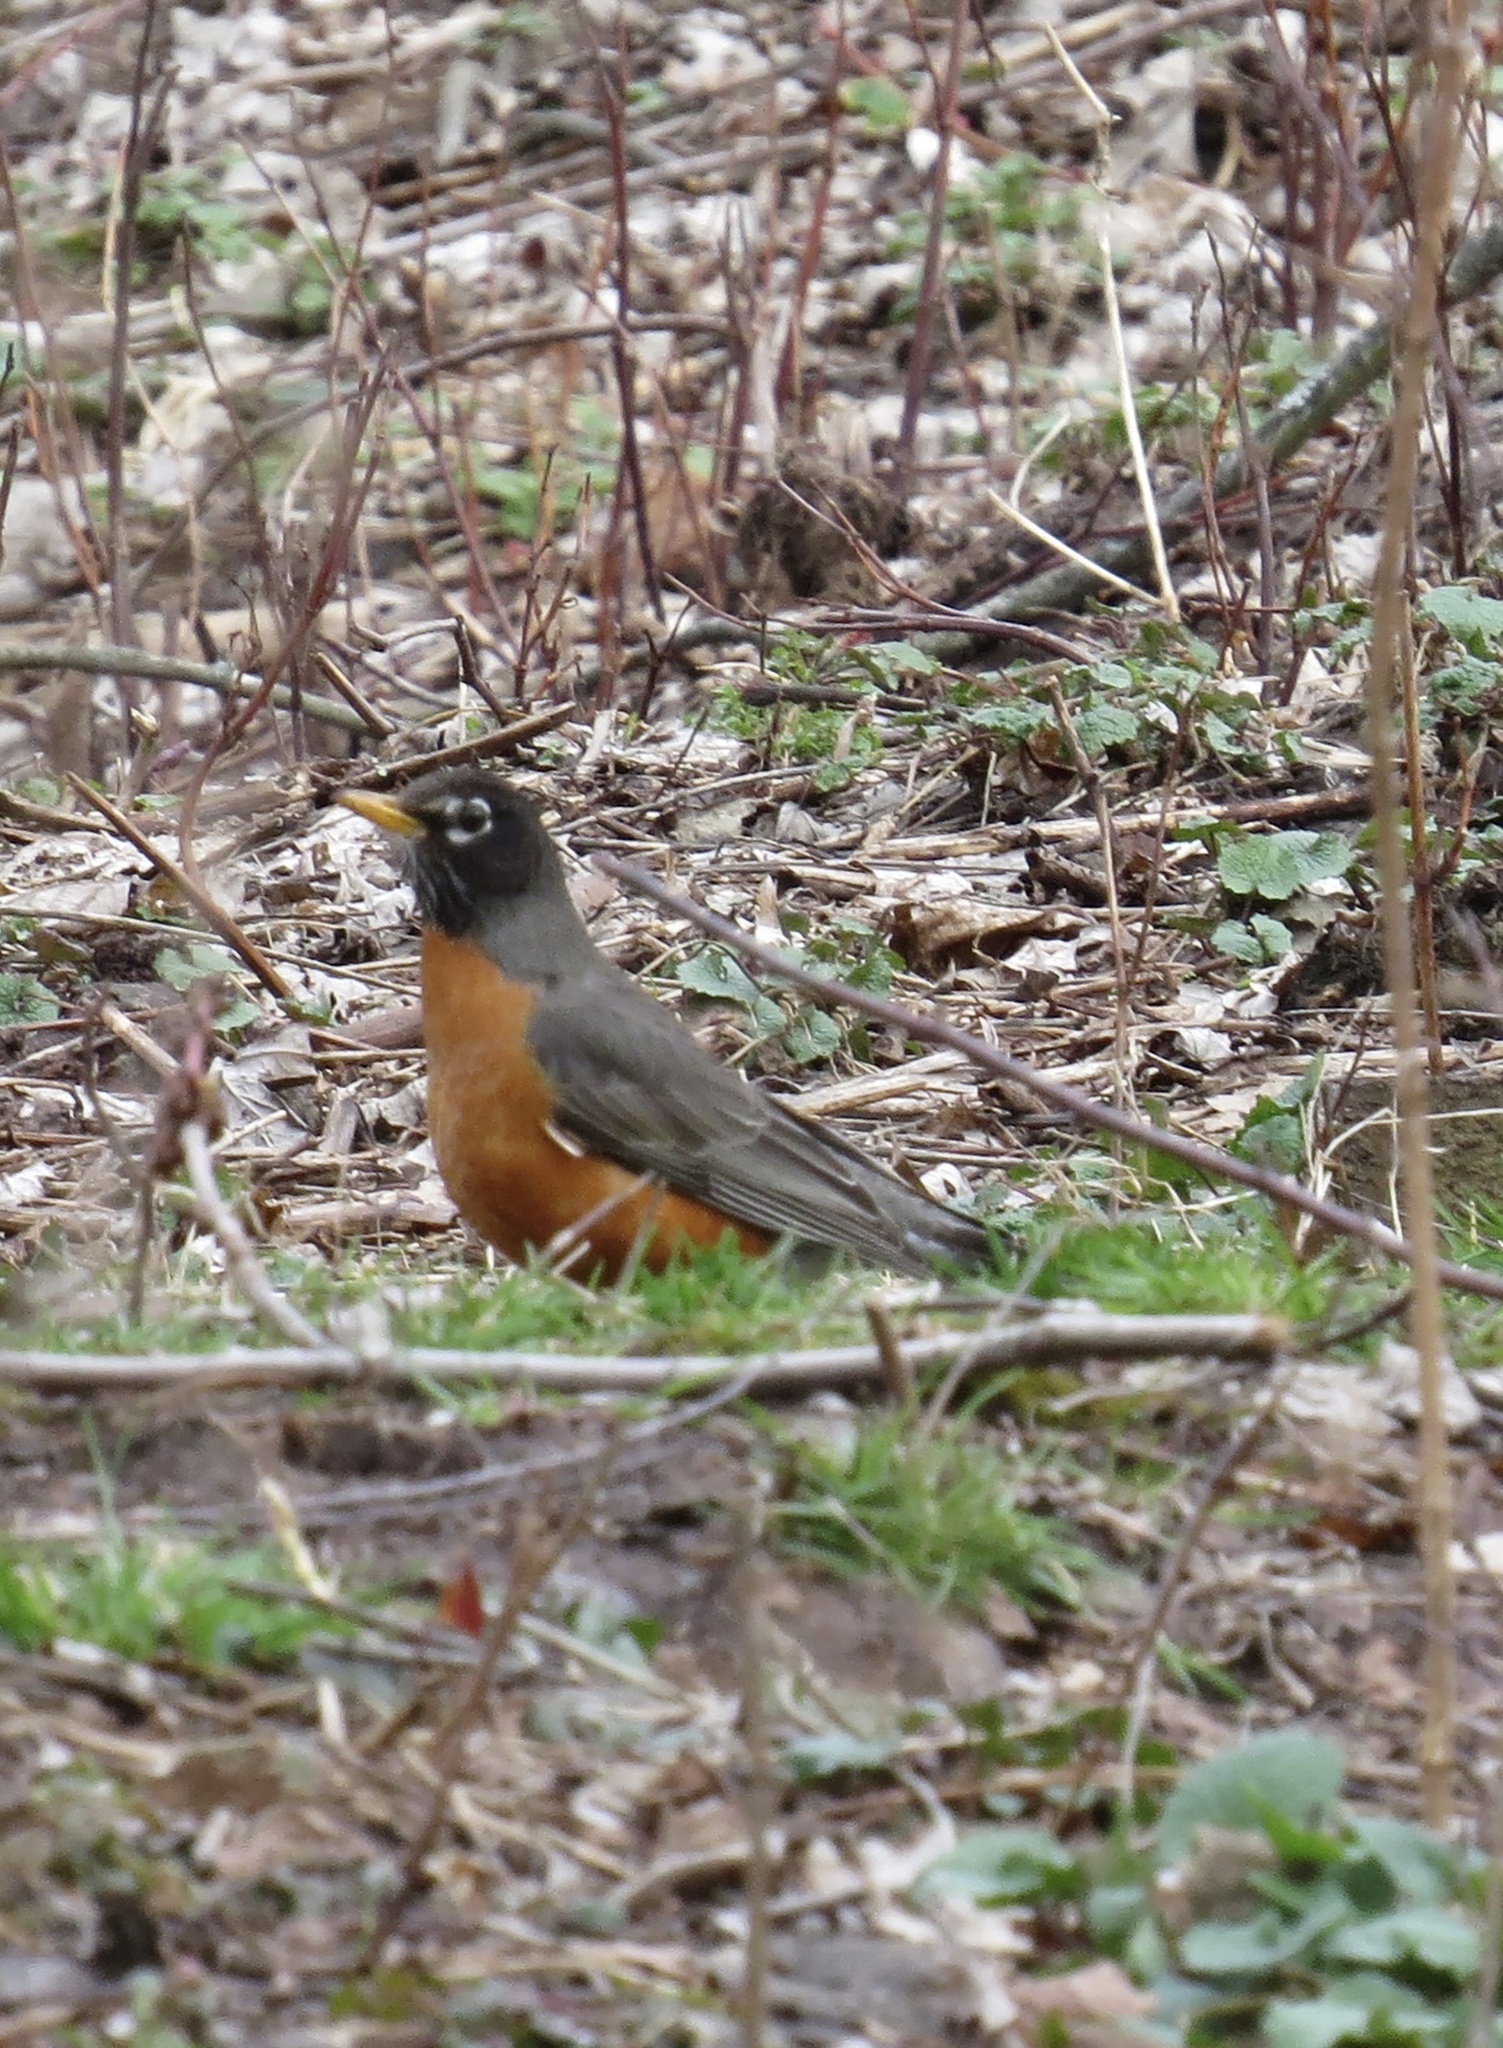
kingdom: Animalia
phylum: Chordata
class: Aves
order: Passeriformes
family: Turdidae
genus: Turdus
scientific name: Turdus migratorius
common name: American robin
